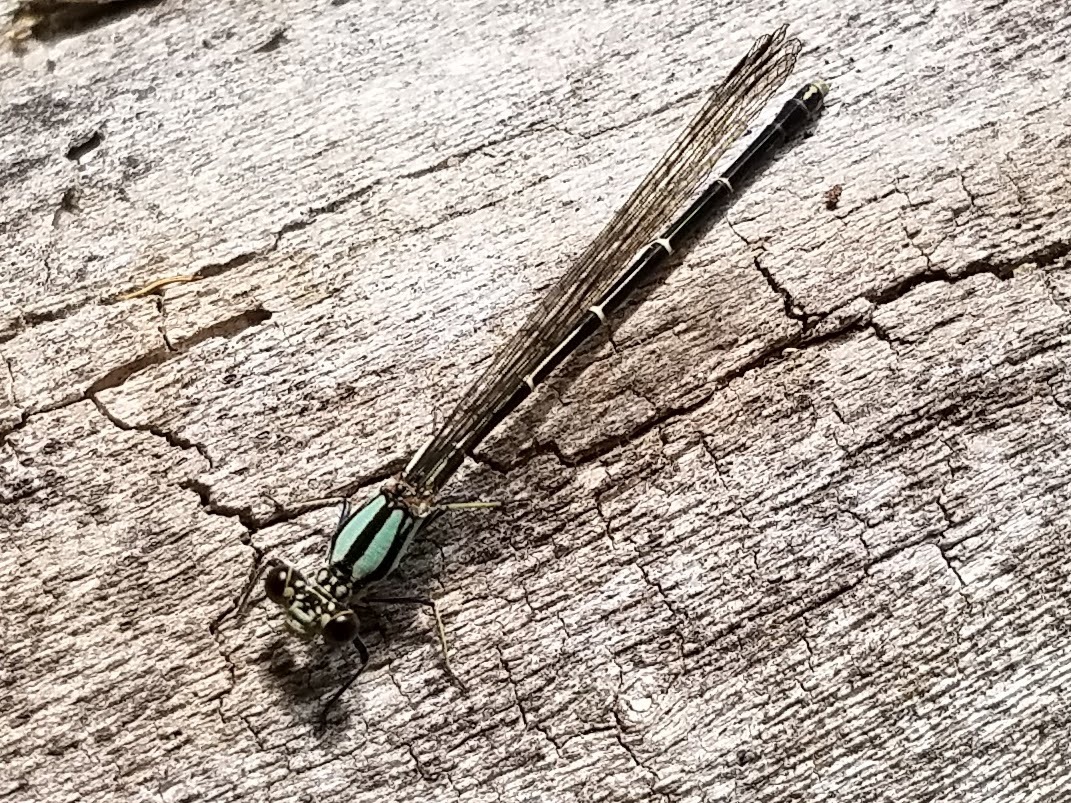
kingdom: Animalia
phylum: Arthropoda
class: Insecta
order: Odonata
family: Coenagrionidae
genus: Argia
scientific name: Argia tibialis
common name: Blue-tipped dancer
